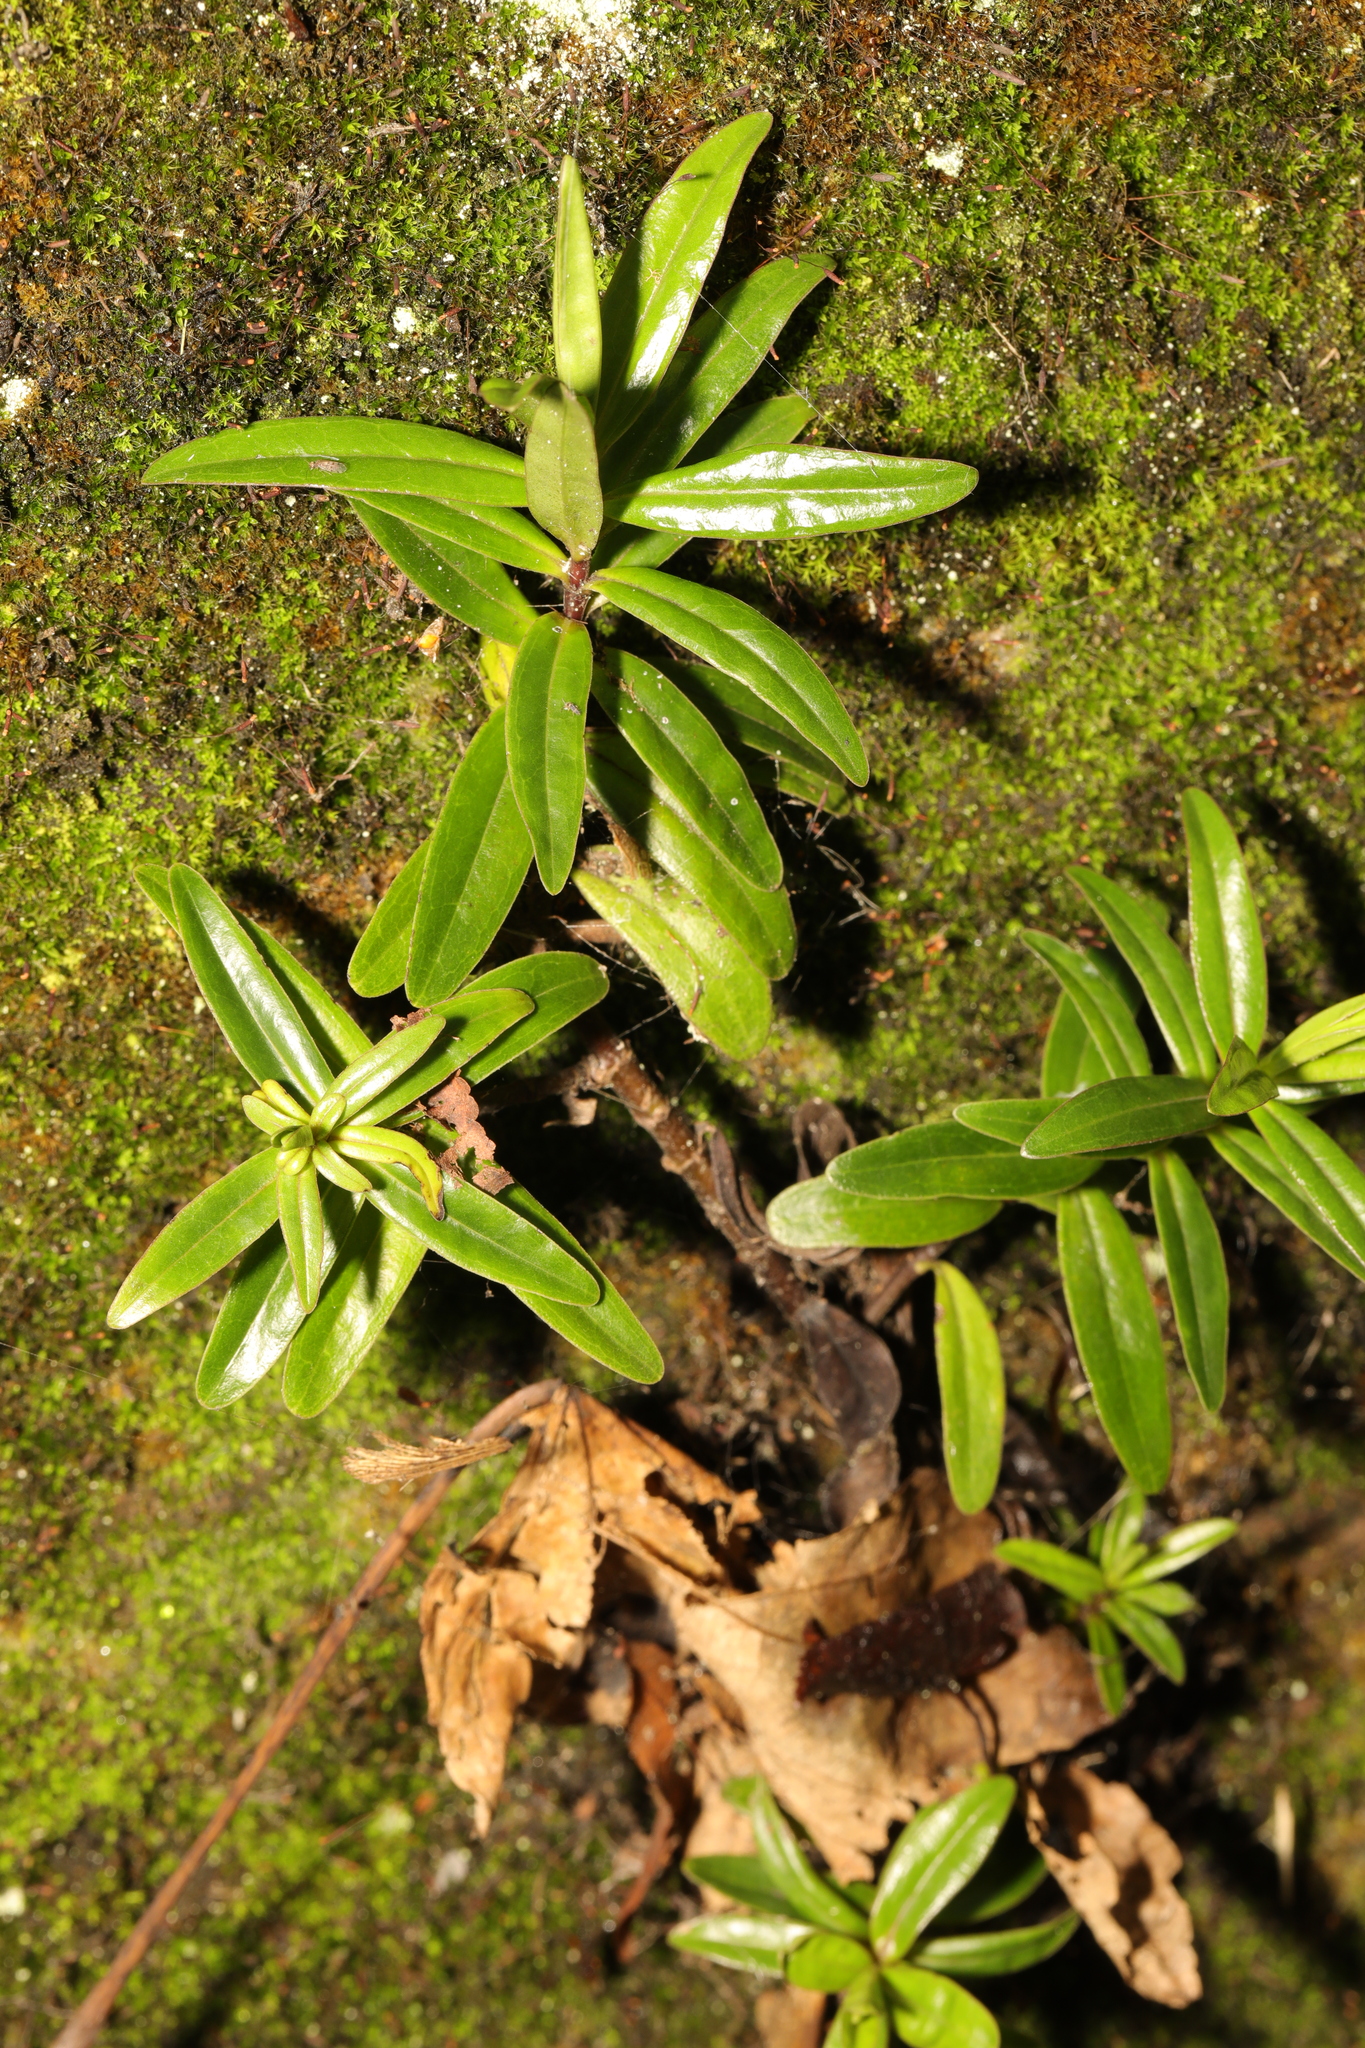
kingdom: Plantae
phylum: Tracheophyta
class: Magnoliopsida
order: Lamiales
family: Plantaginaceae
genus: Veronica
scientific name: Veronica salicifolia
